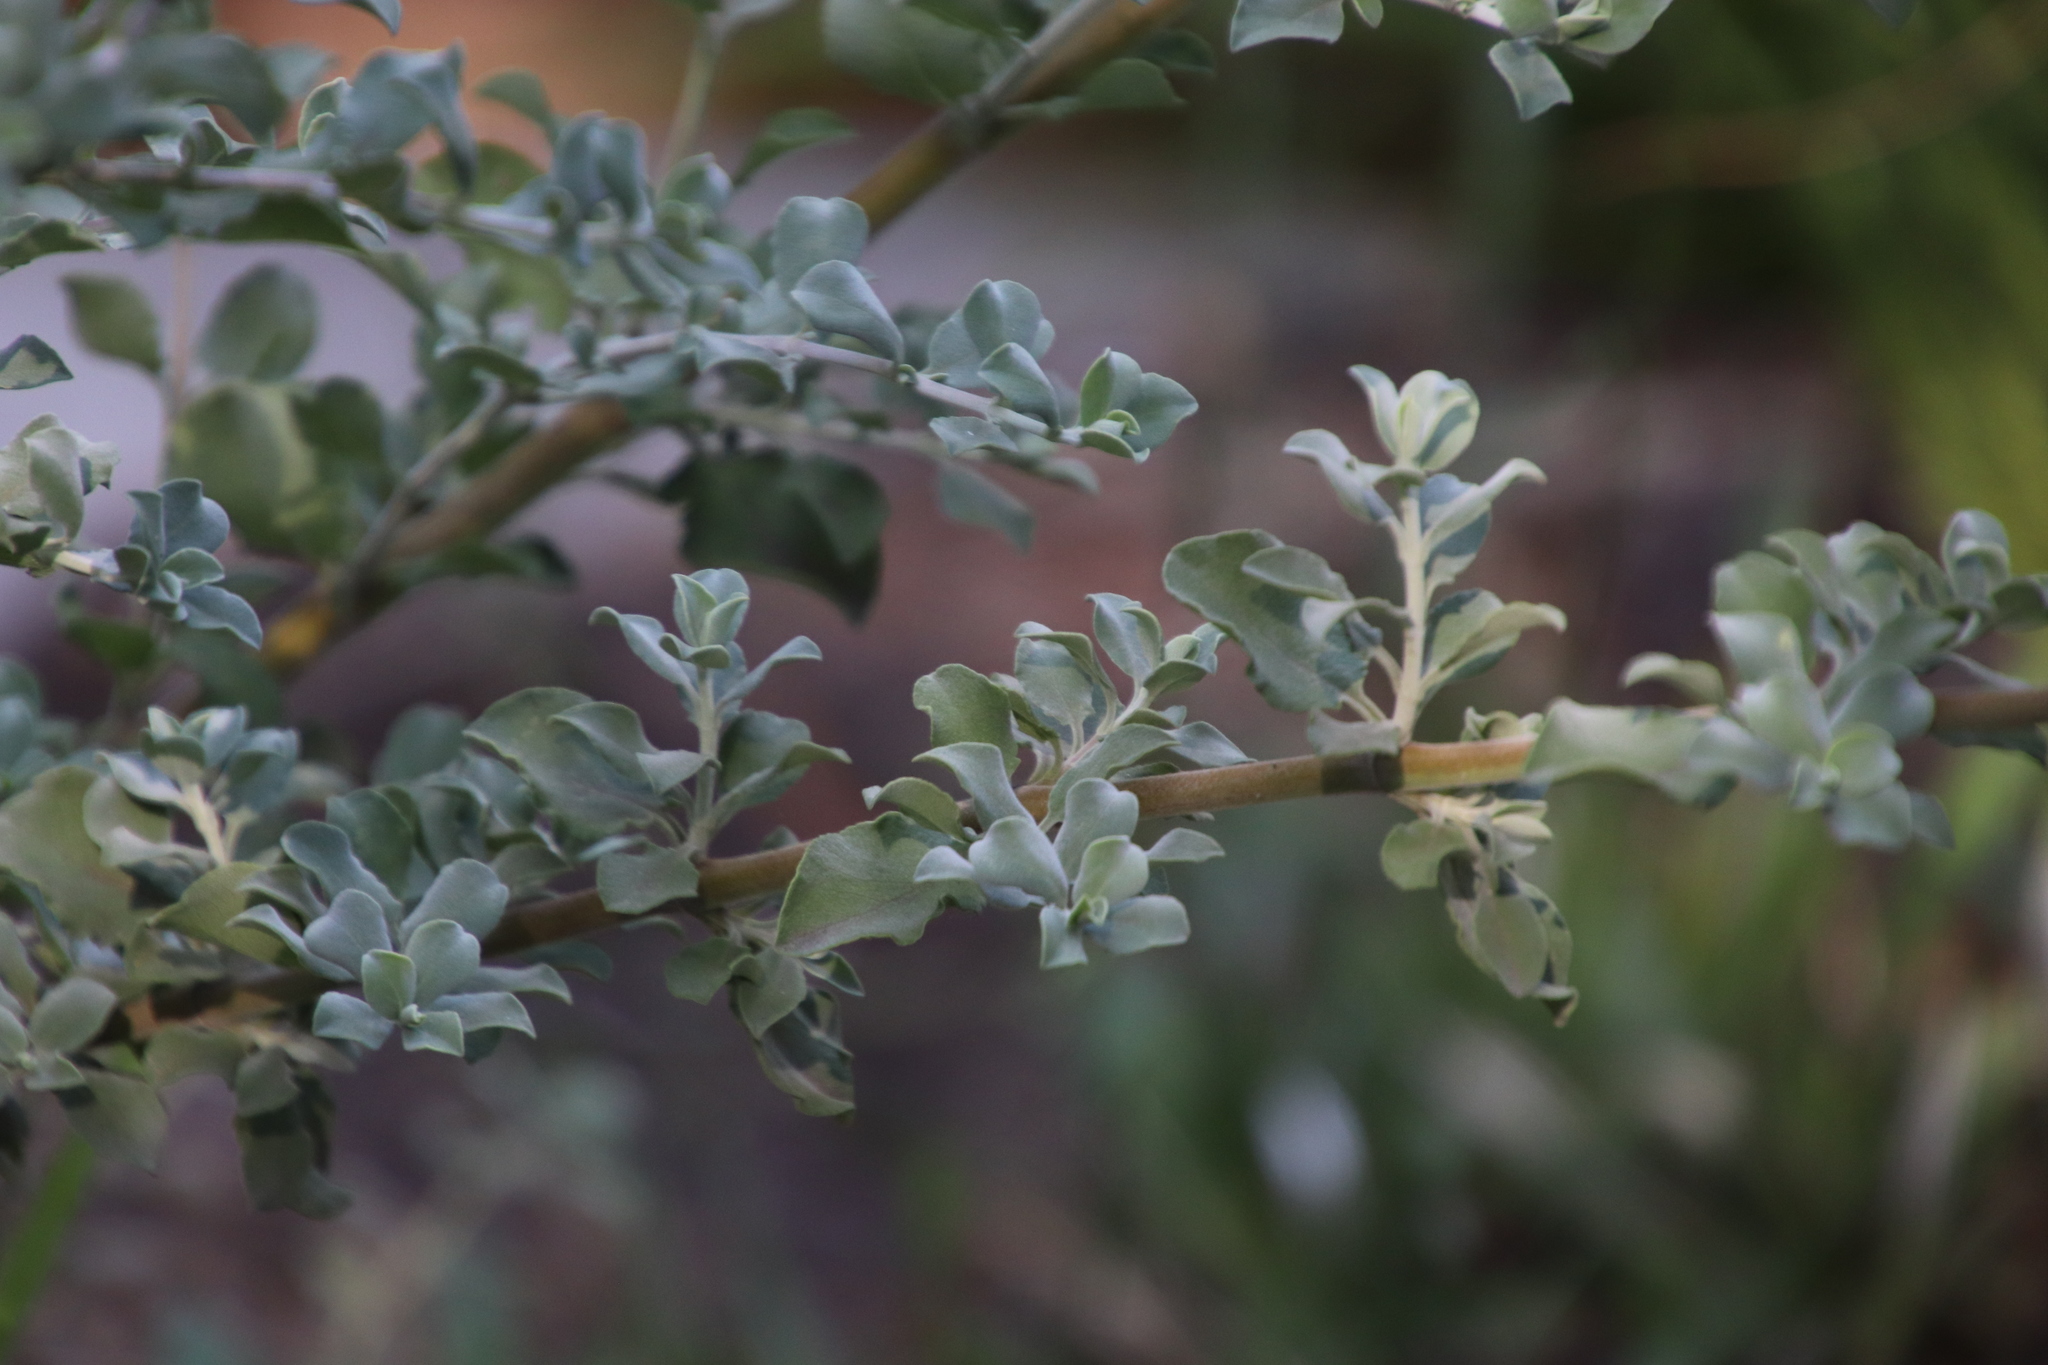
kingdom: Plantae
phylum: Tracheophyta
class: Magnoliopsida
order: Lamiales
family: Lamiaceae
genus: Salvia
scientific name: Salvia aurea
